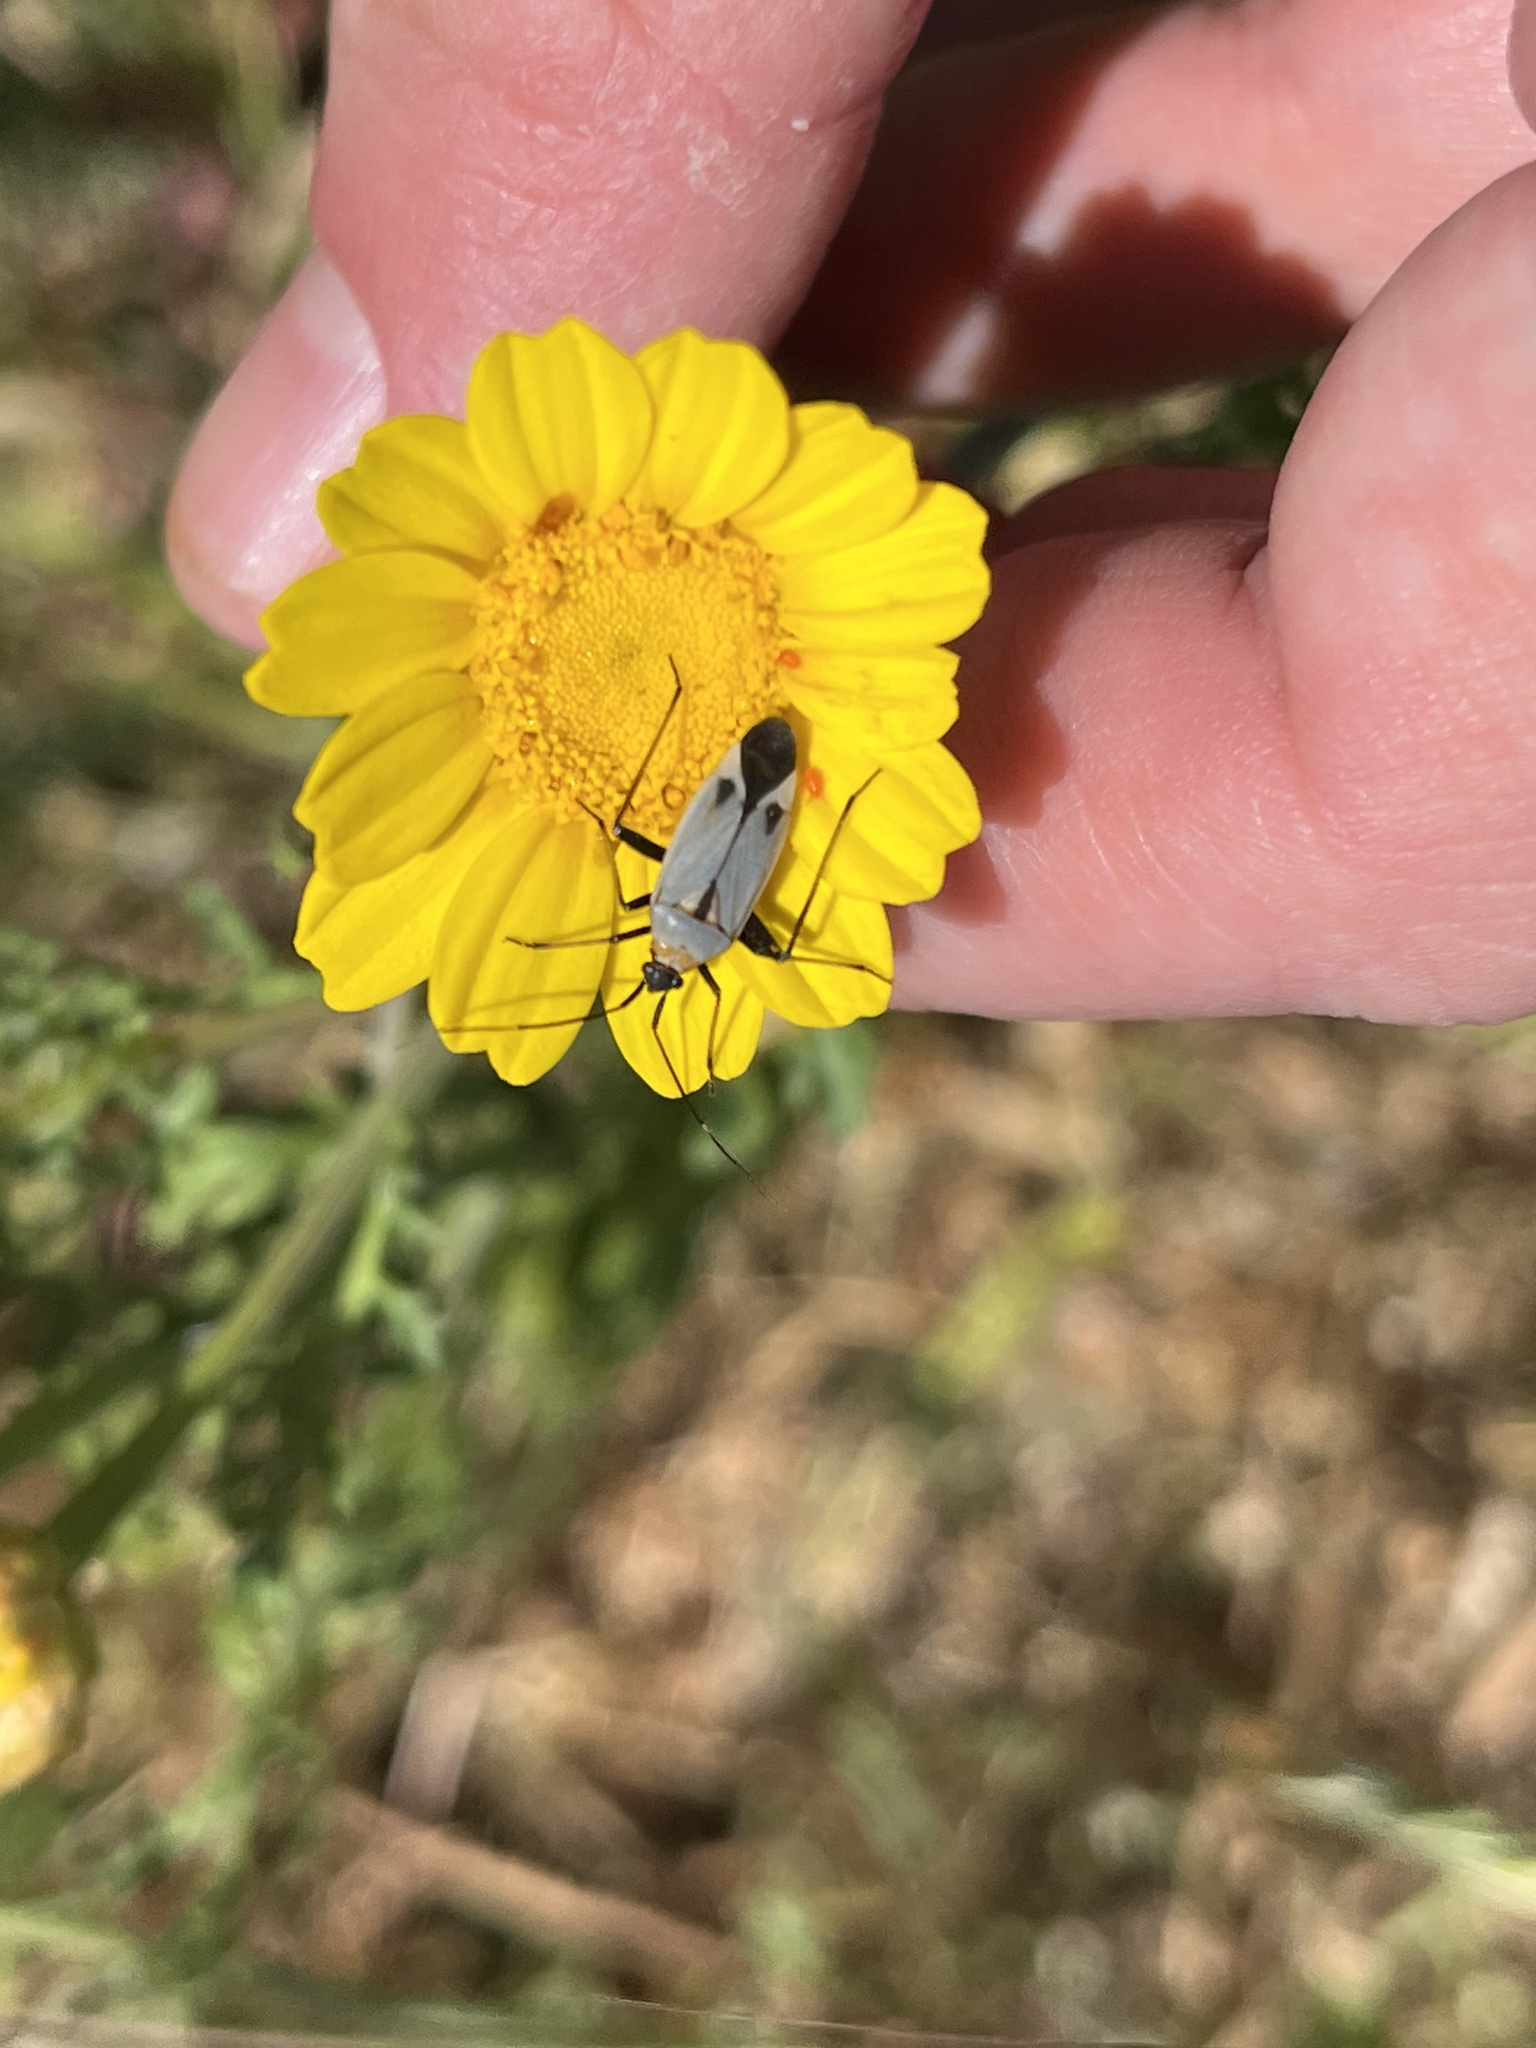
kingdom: Animalia
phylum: Arthropoda
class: Insecta
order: Hemiptera
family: Miridae
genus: Calocoris
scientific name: Calocoris nemoralis
